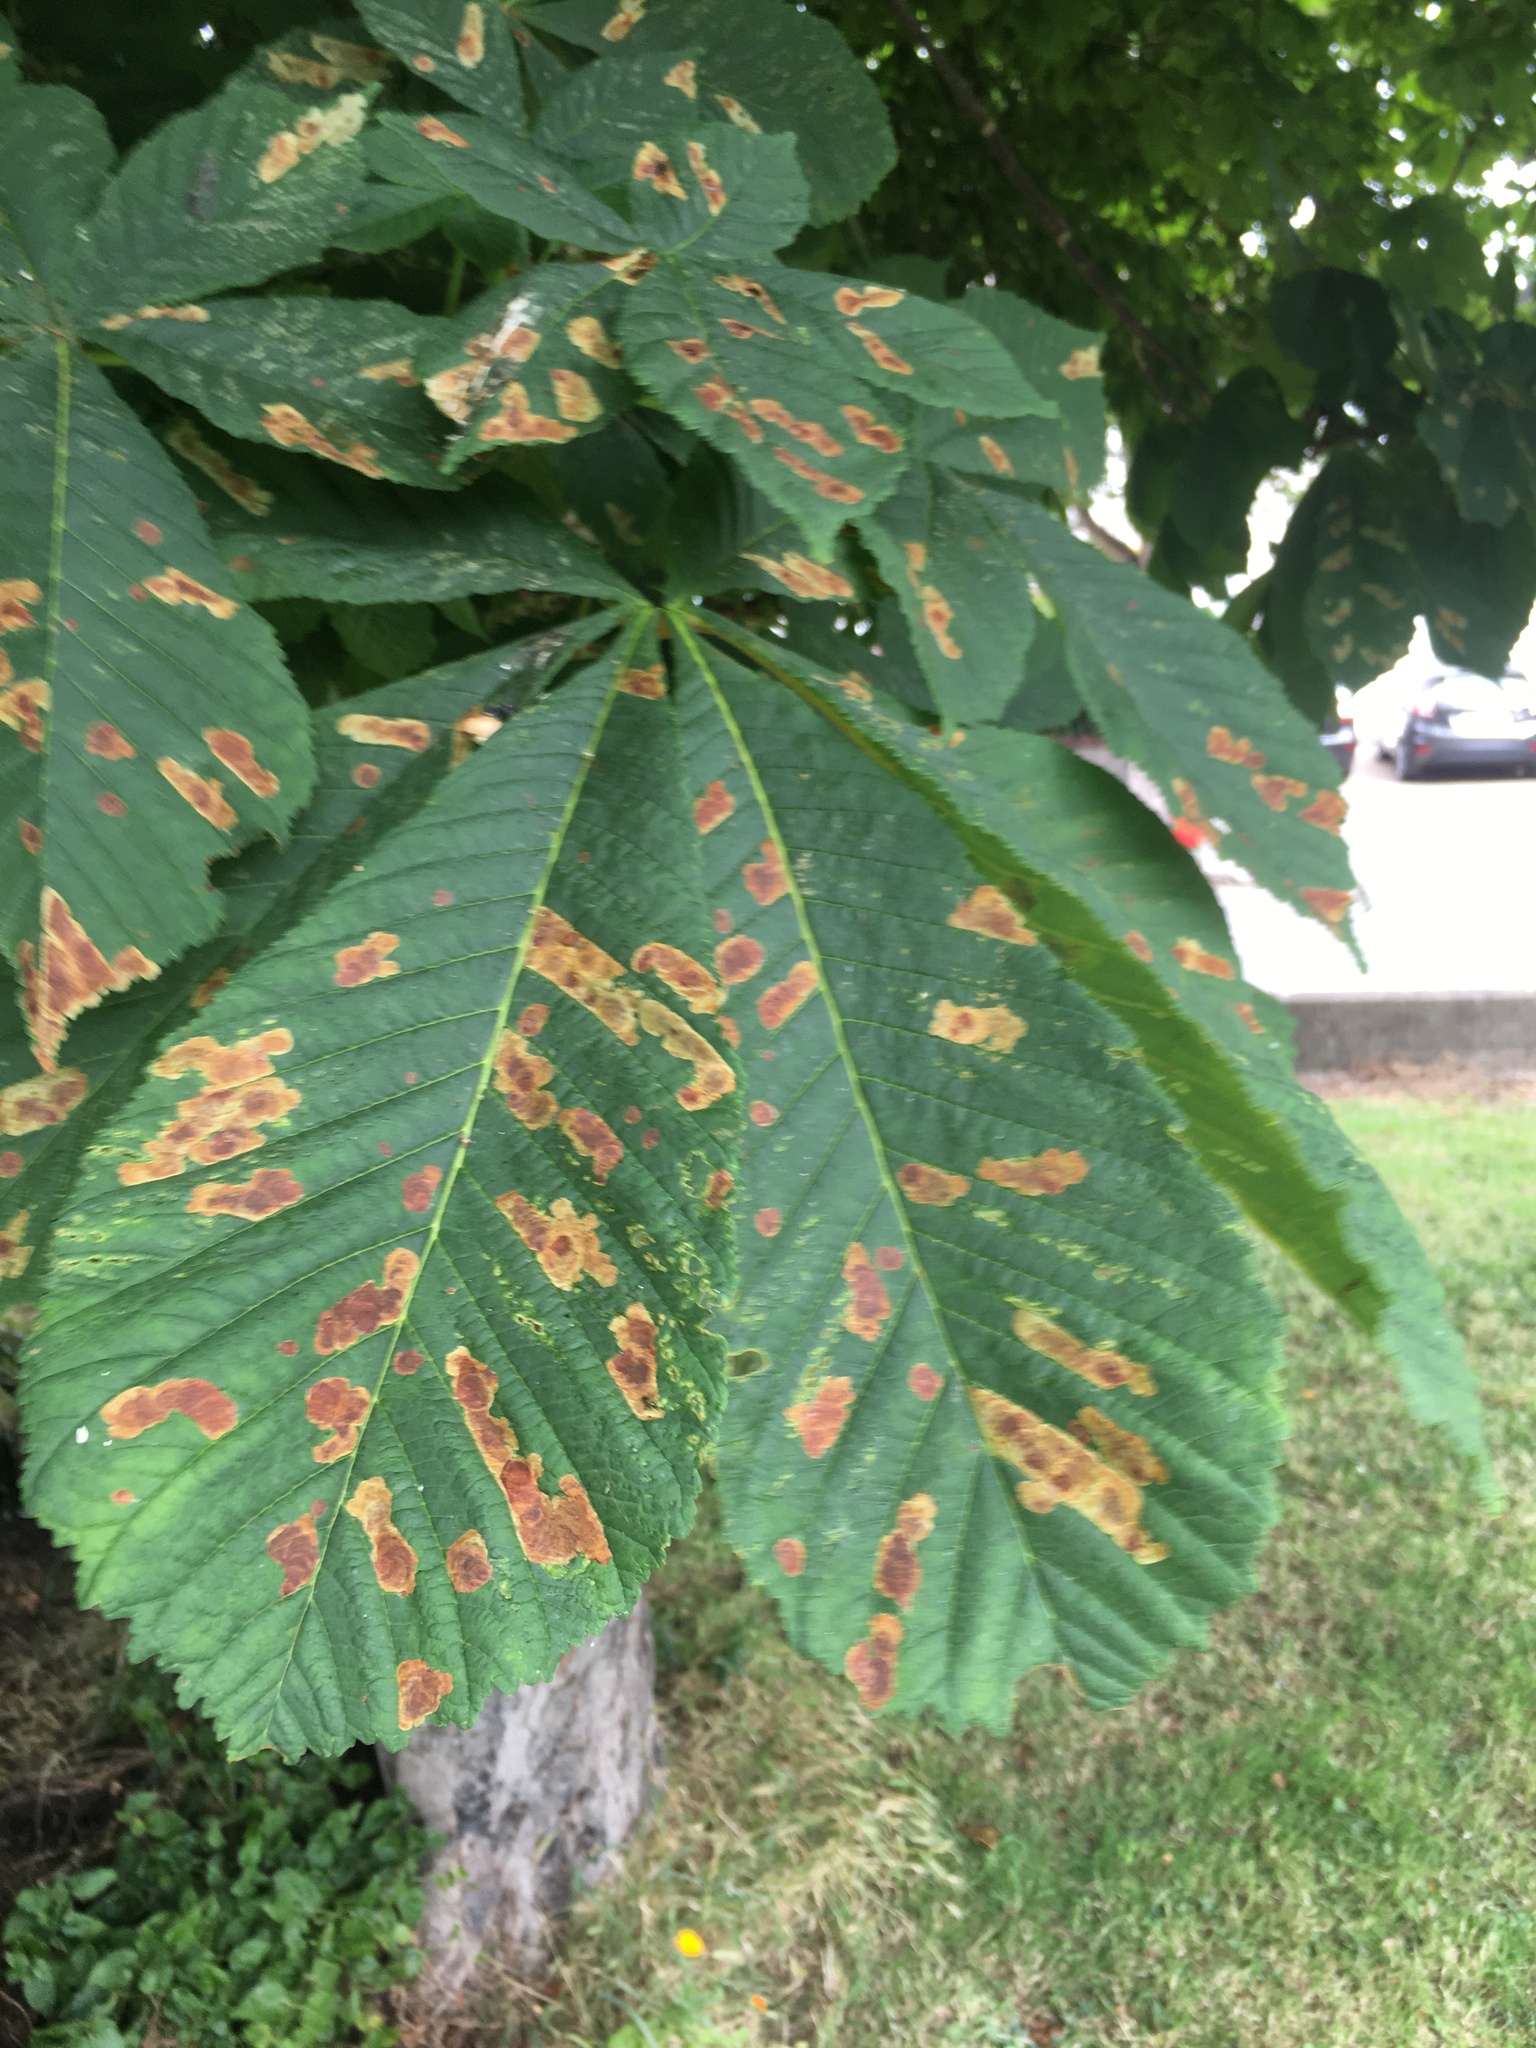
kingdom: Animalia
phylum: Arthropoda
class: Insecta
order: Lepidoptera
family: Gracillariidae
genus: Cameraria
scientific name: Cameraria ohridella
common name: Horse-chestnut leaf-miner
